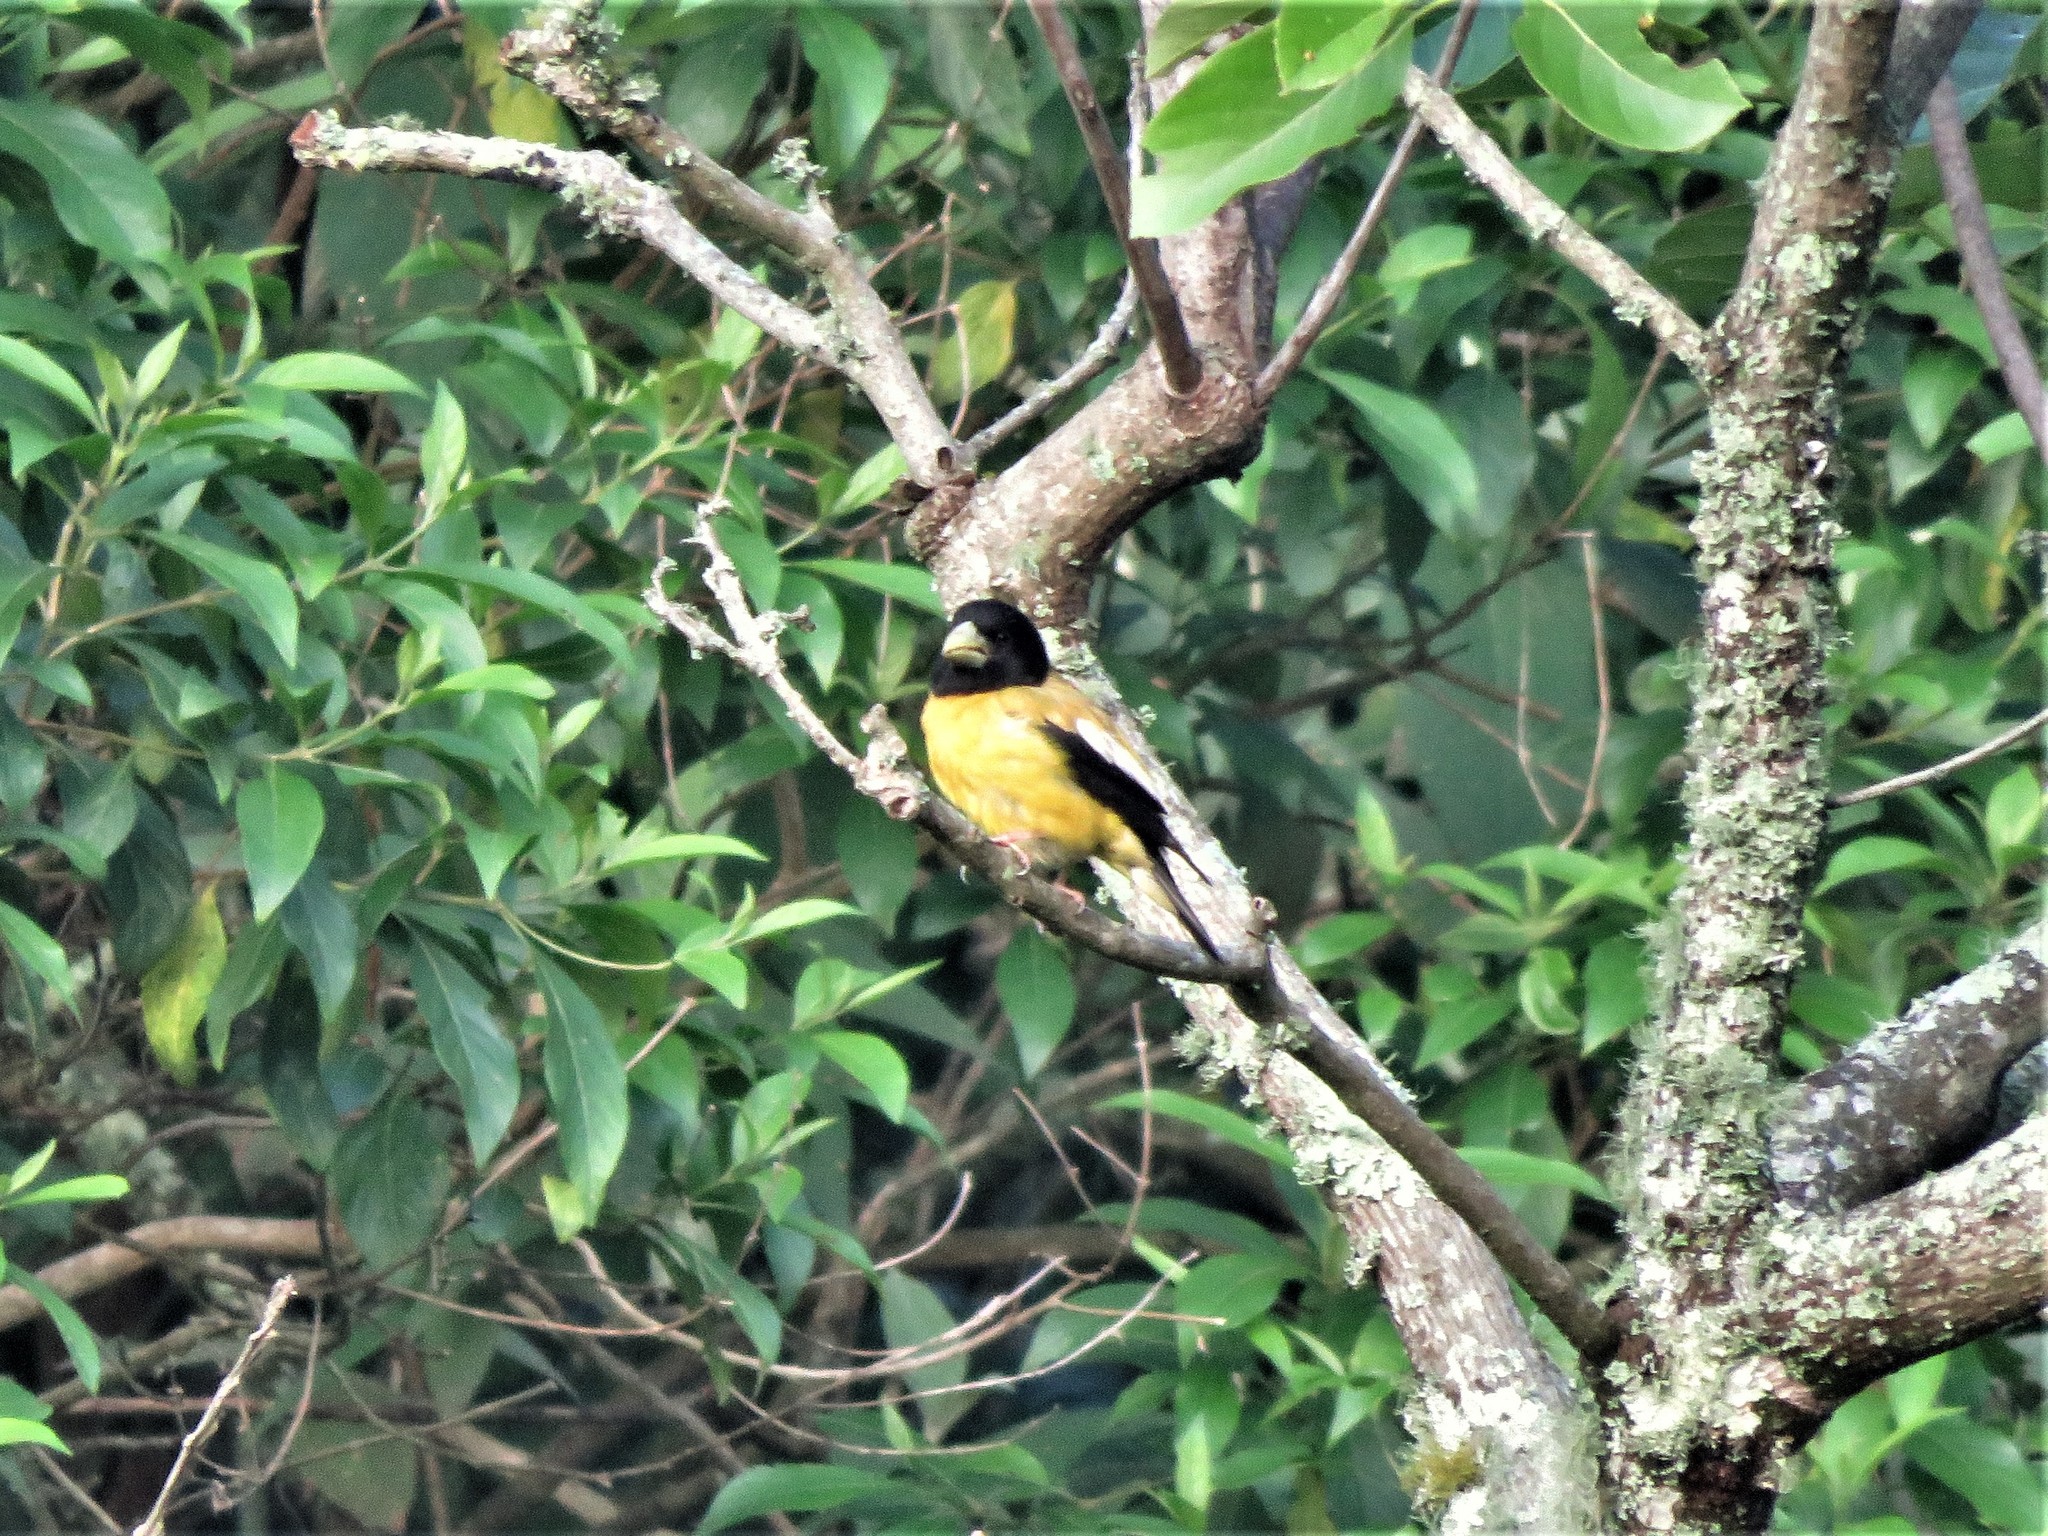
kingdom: Animalia
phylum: Chordata
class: Aves
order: Passeriformes
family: Fringillidae
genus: Hesperiphona
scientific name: Hesperiphona abeillei
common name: Hooded grosbeak
